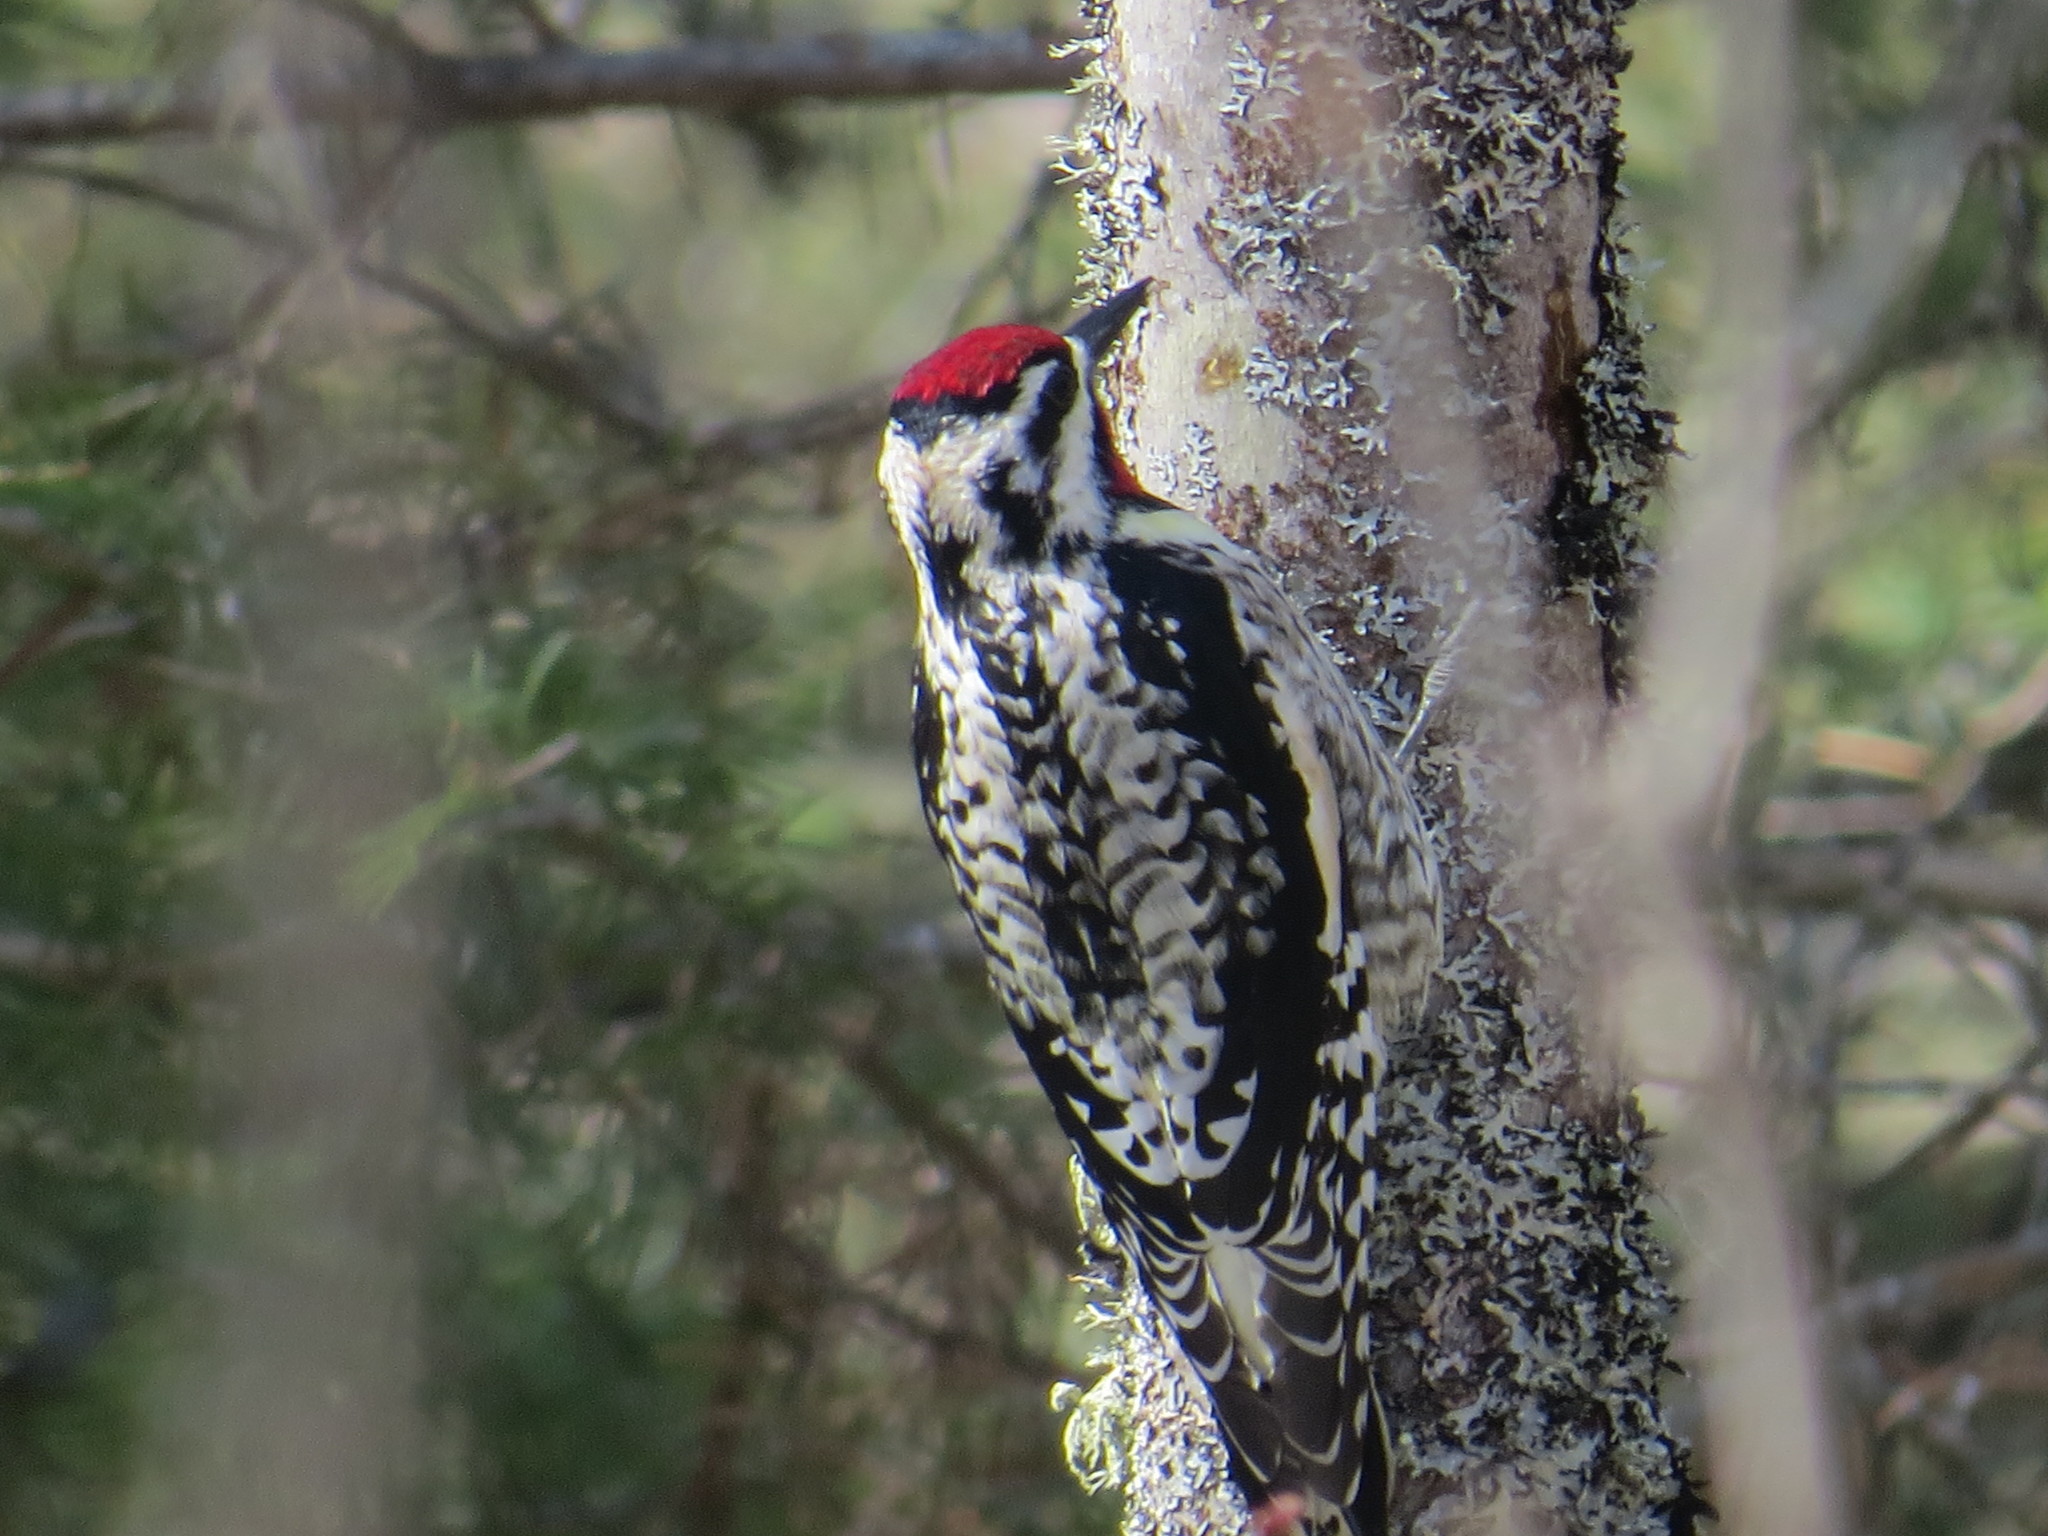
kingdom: Animalia
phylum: Chordata
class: Aves
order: Piciformes
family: Picidae
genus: Sphyrapicus
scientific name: Sphyrapicus varius
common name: Yellow-bellied sapsucker
